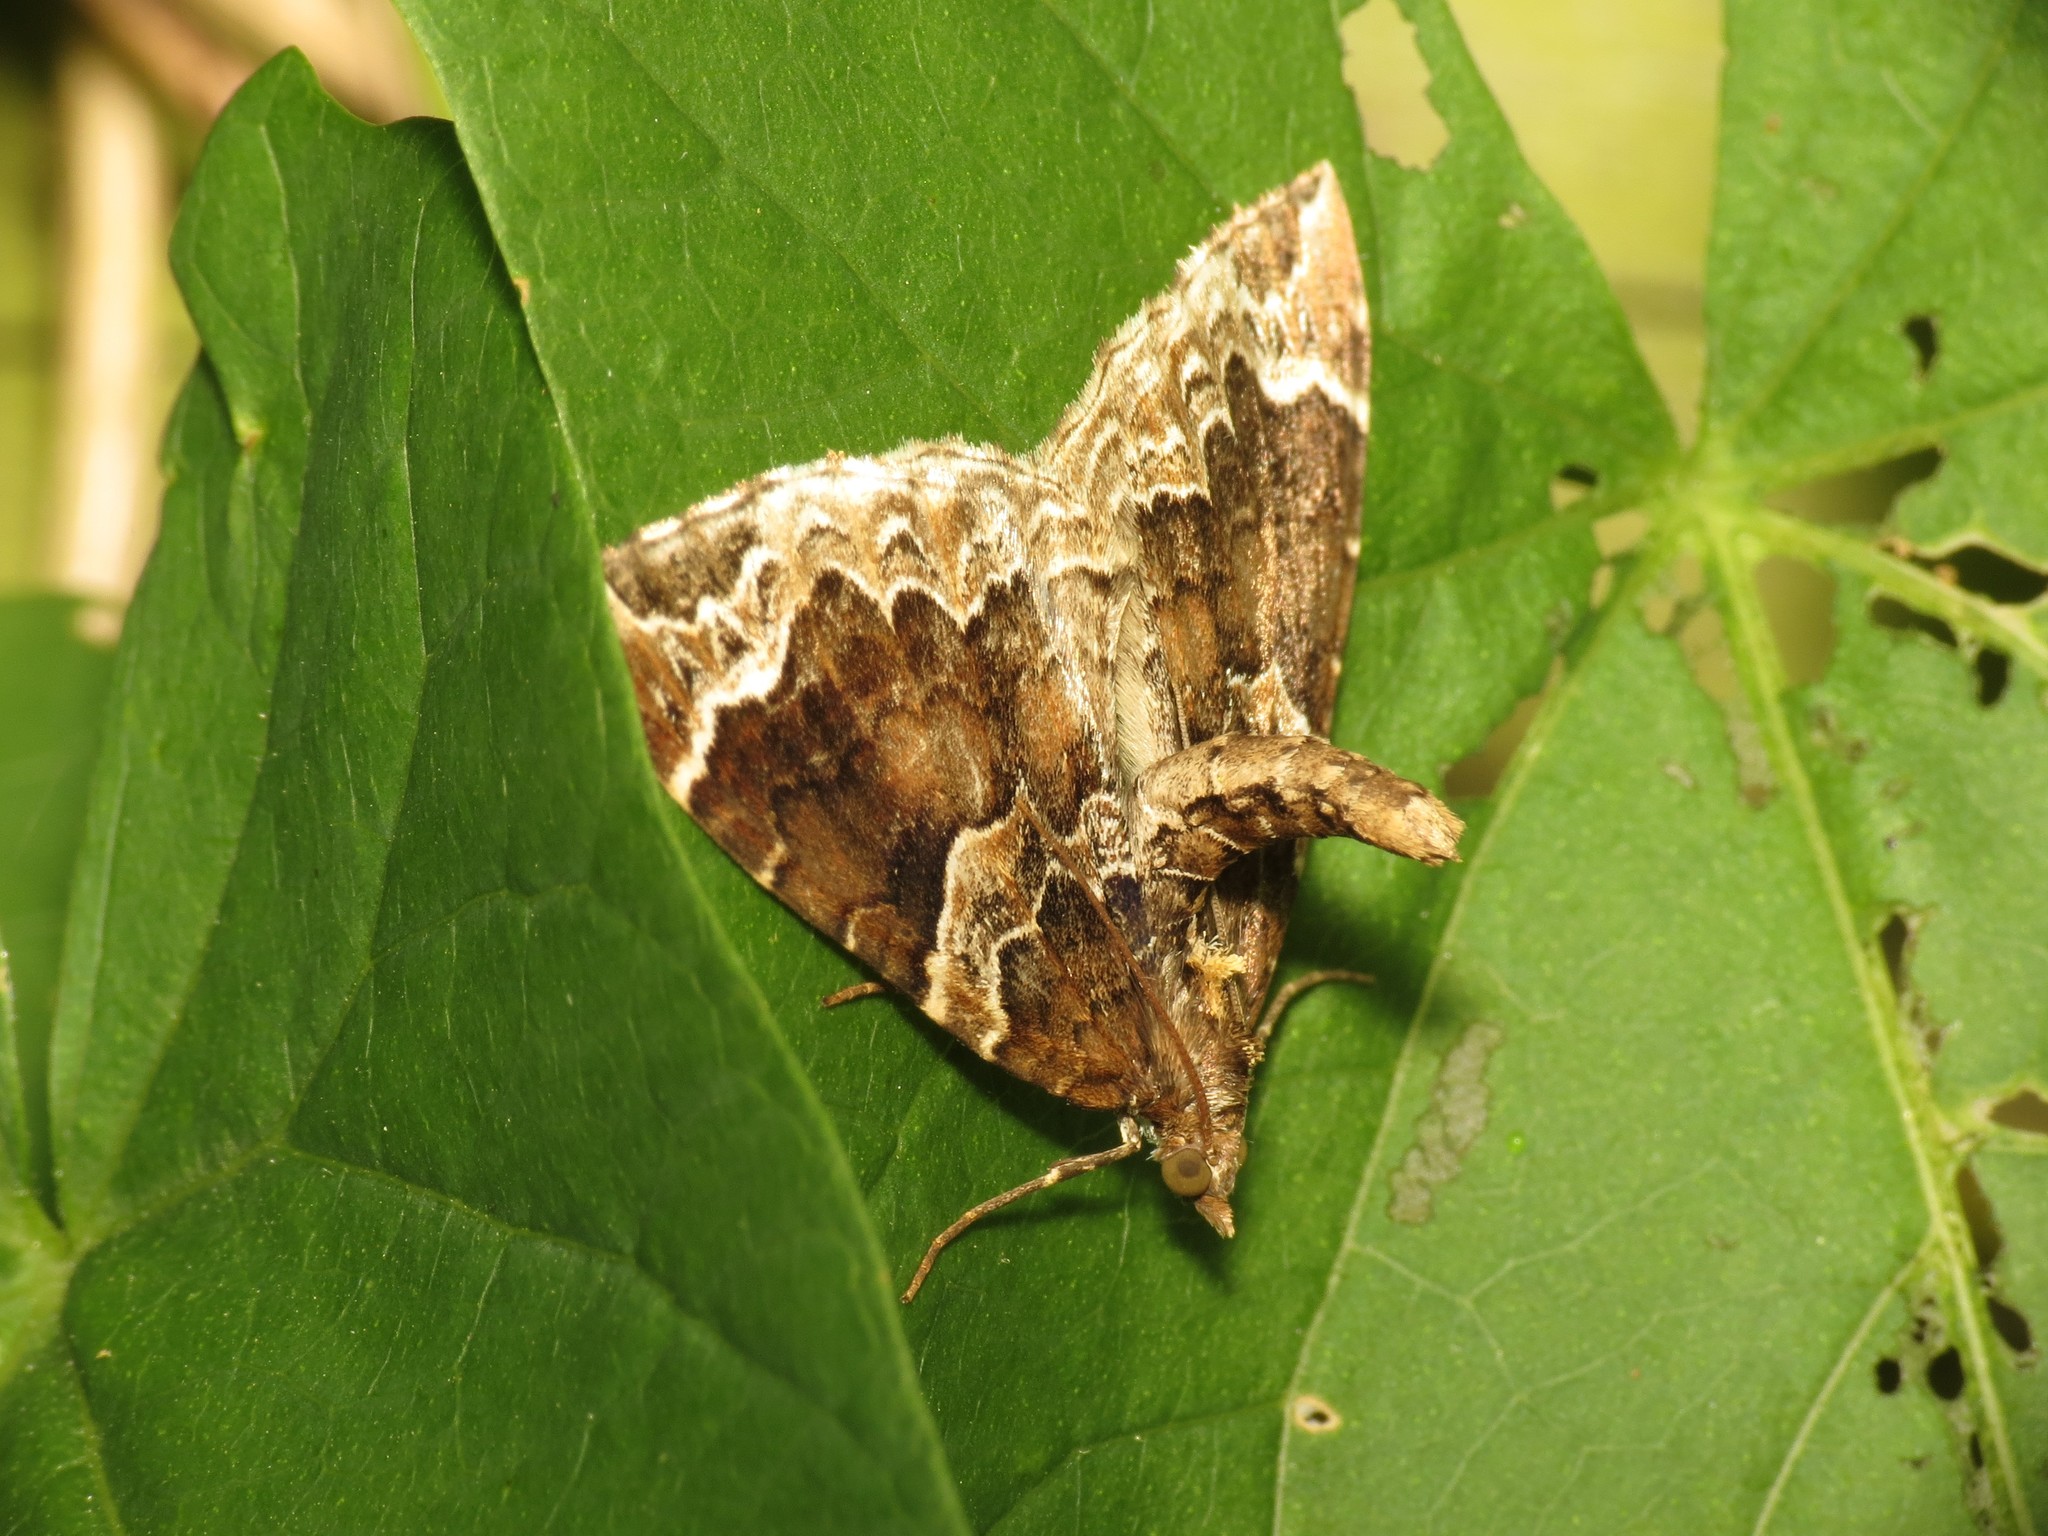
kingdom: Animalia
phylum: Arthropoda
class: Insecta
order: Lepidoptera
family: Geometridae
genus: Eulithis
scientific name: Eulithis prunata
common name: Phoenix
